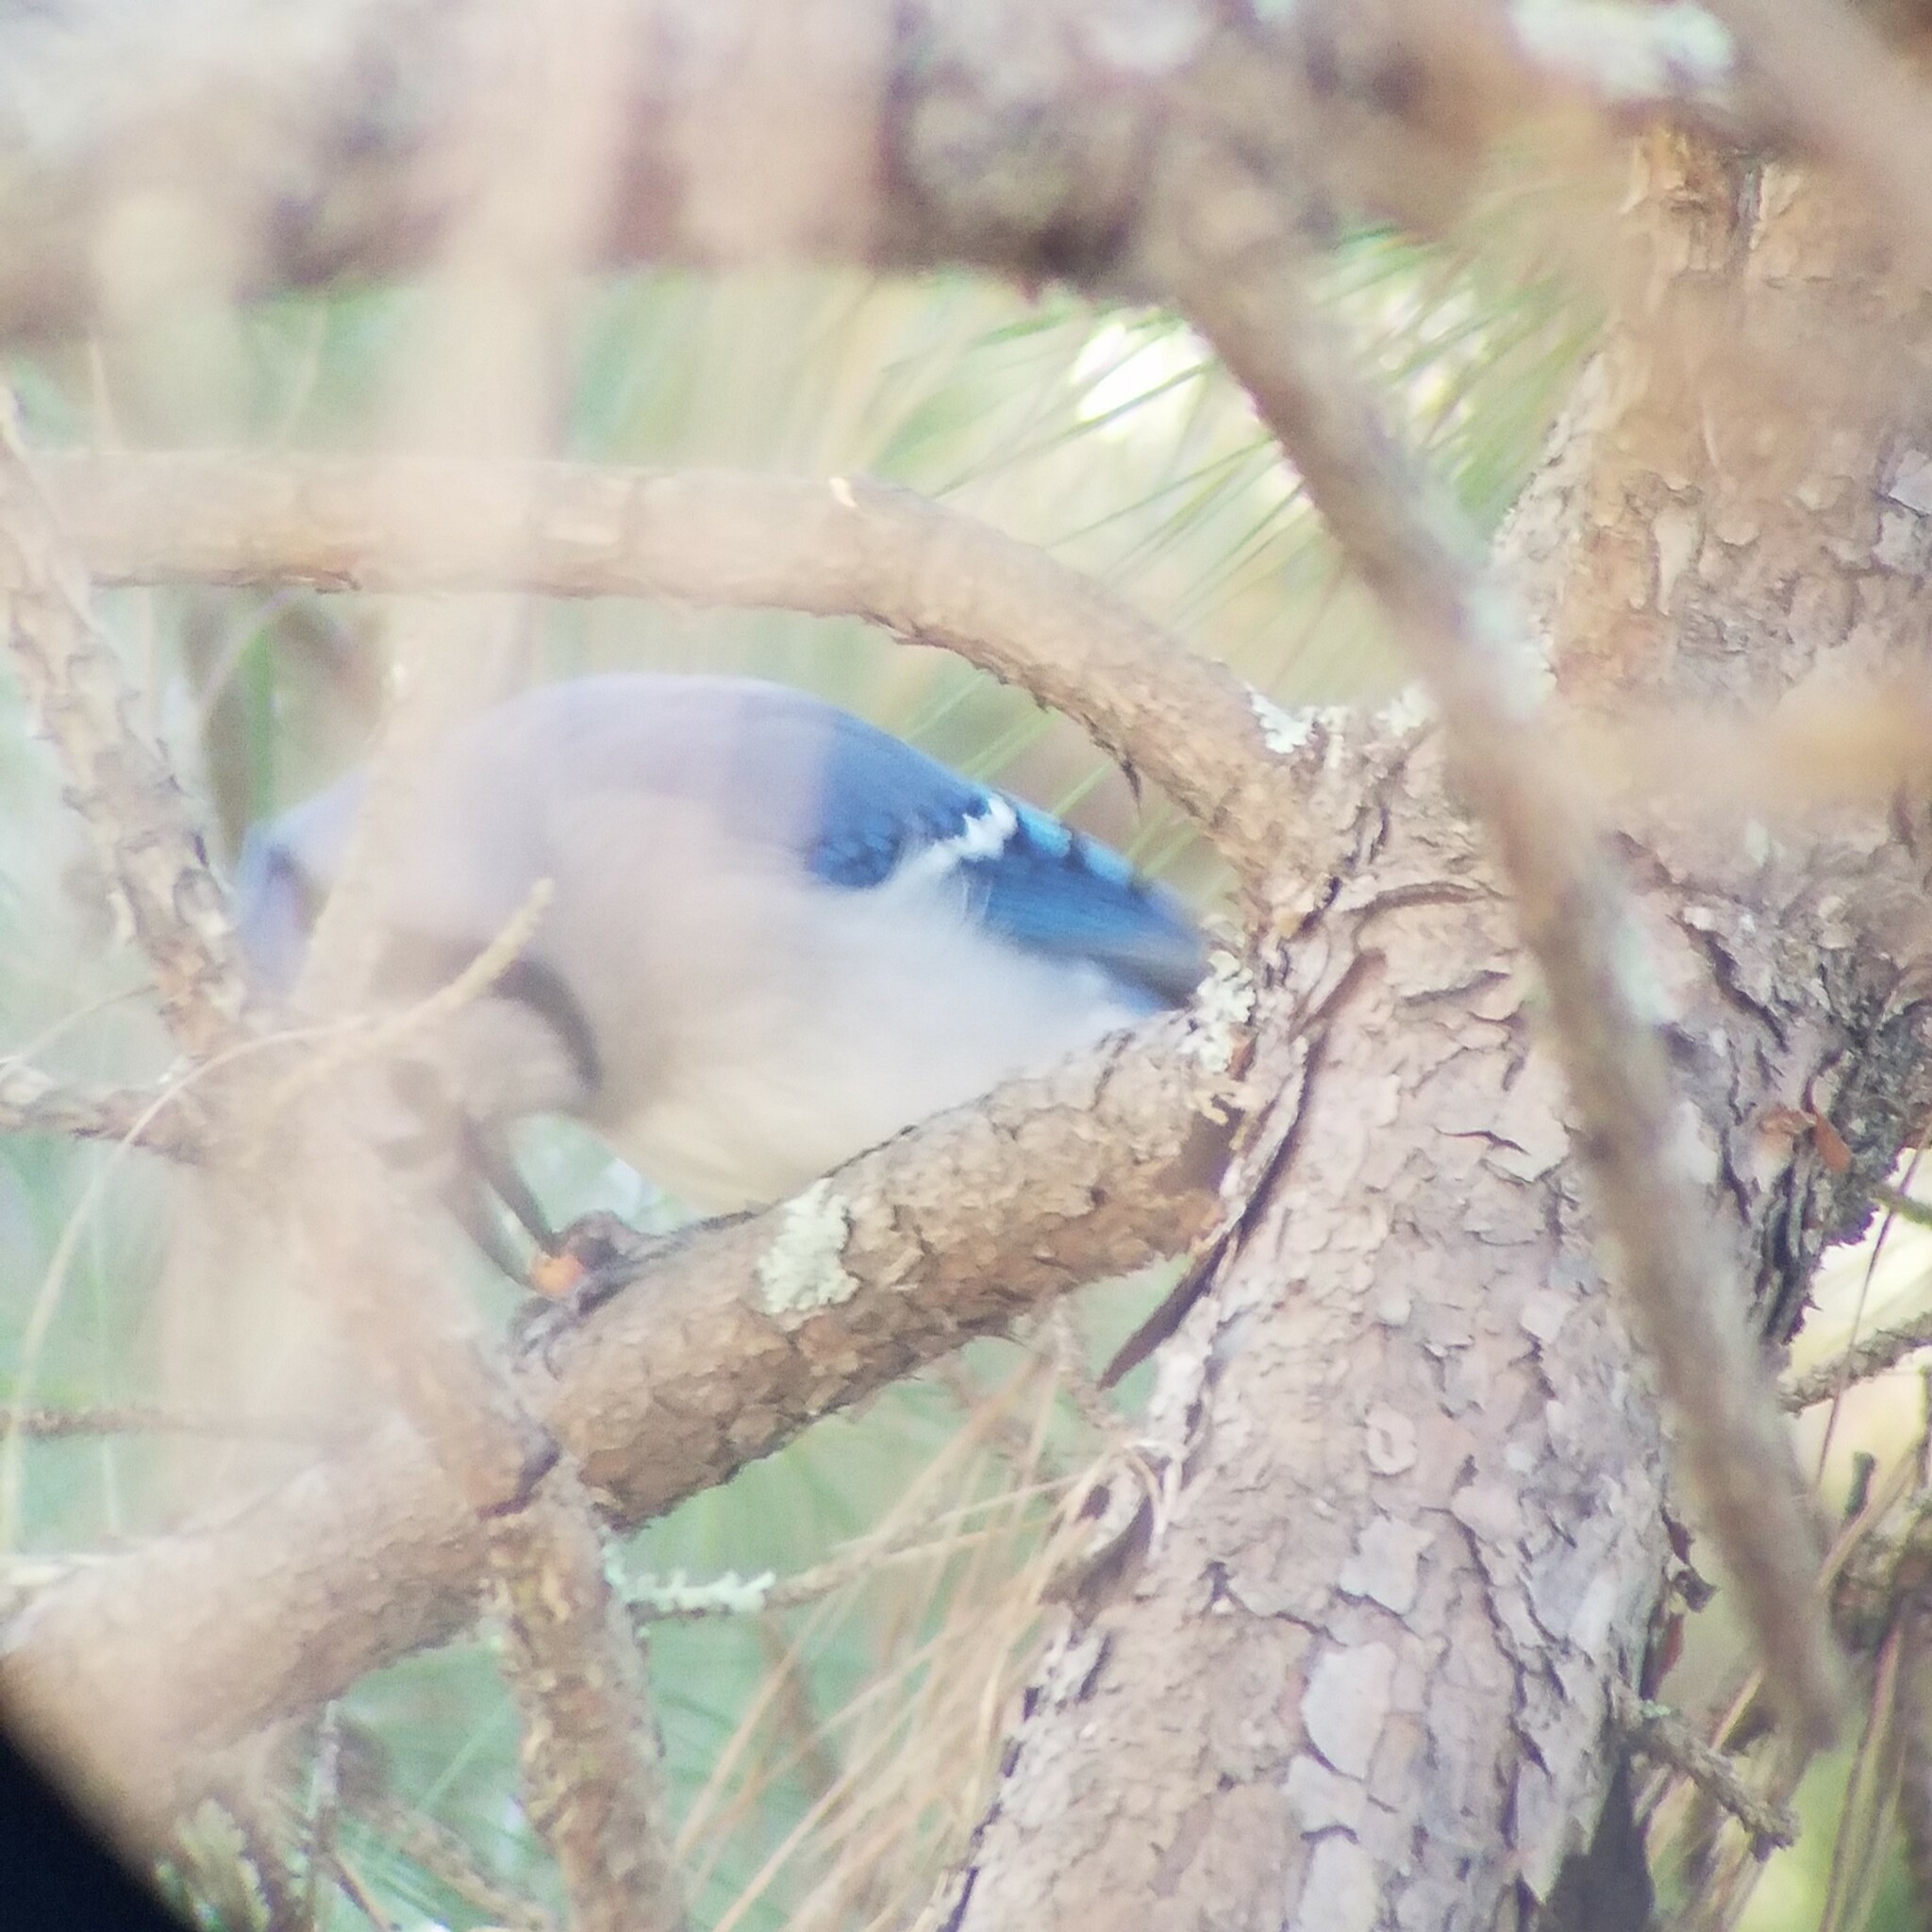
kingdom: Animalia
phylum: Chordata
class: Aves
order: Passeriformes
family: Corvidae
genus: Cyanocitta
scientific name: Cyanocitta cristata
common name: Blue jay
